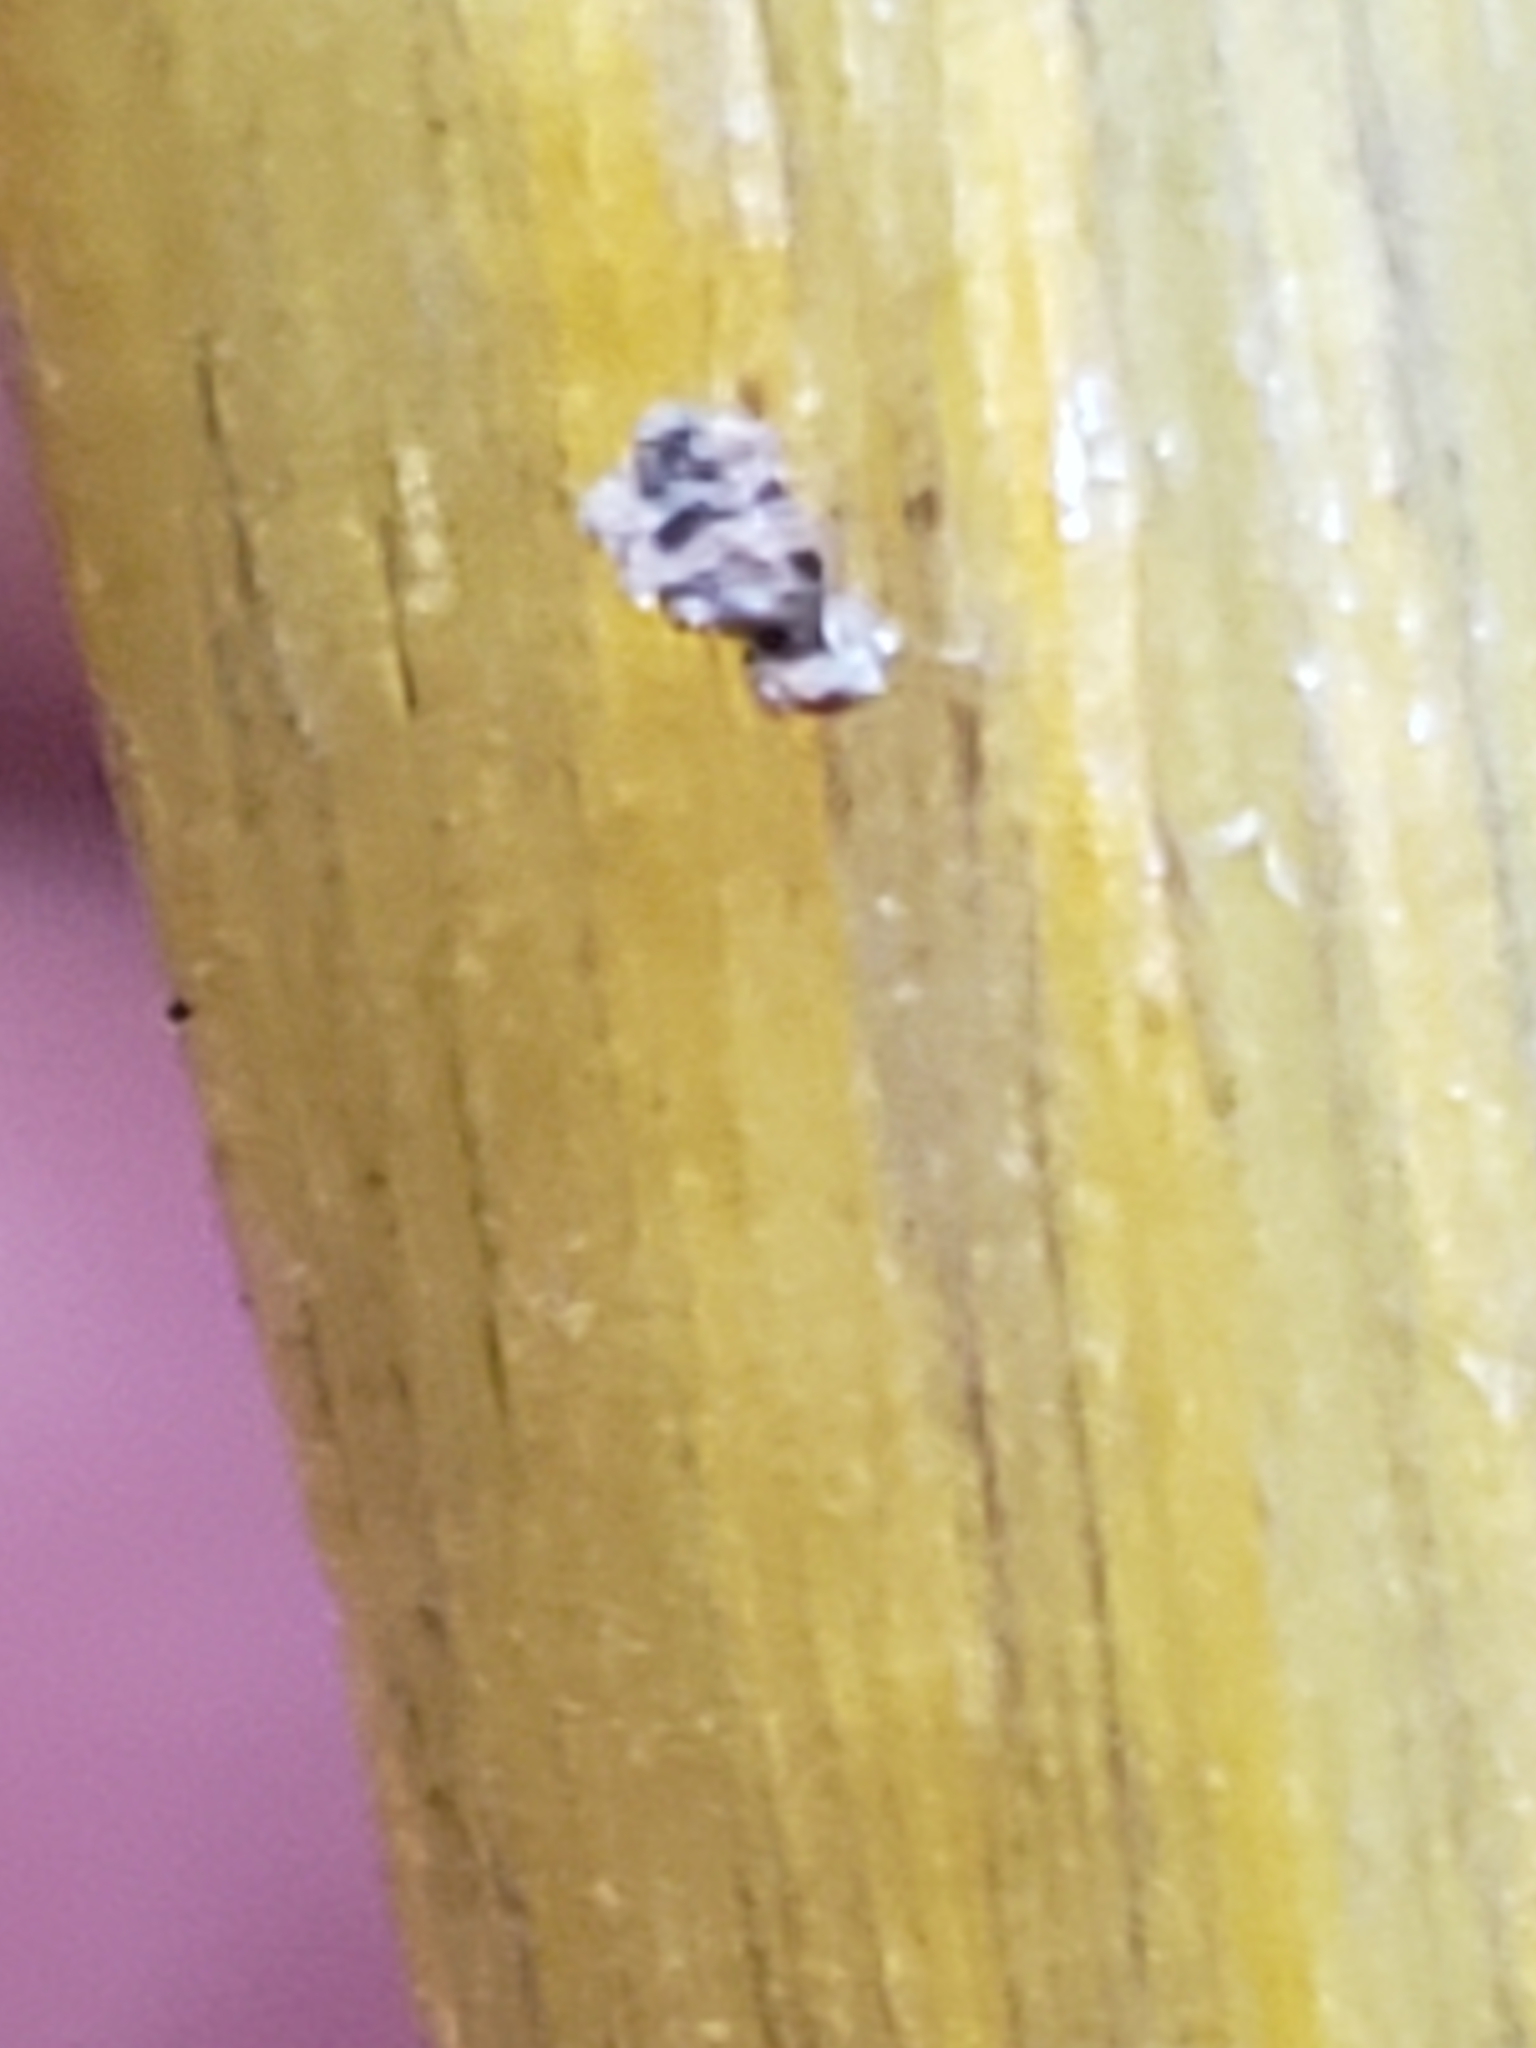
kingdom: Fungi
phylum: Entomophthoromycota
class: Entomophthoromycetes
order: Entomophthorales
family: Entomophthoraceae
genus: Entomophthora
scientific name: Entomophthora
